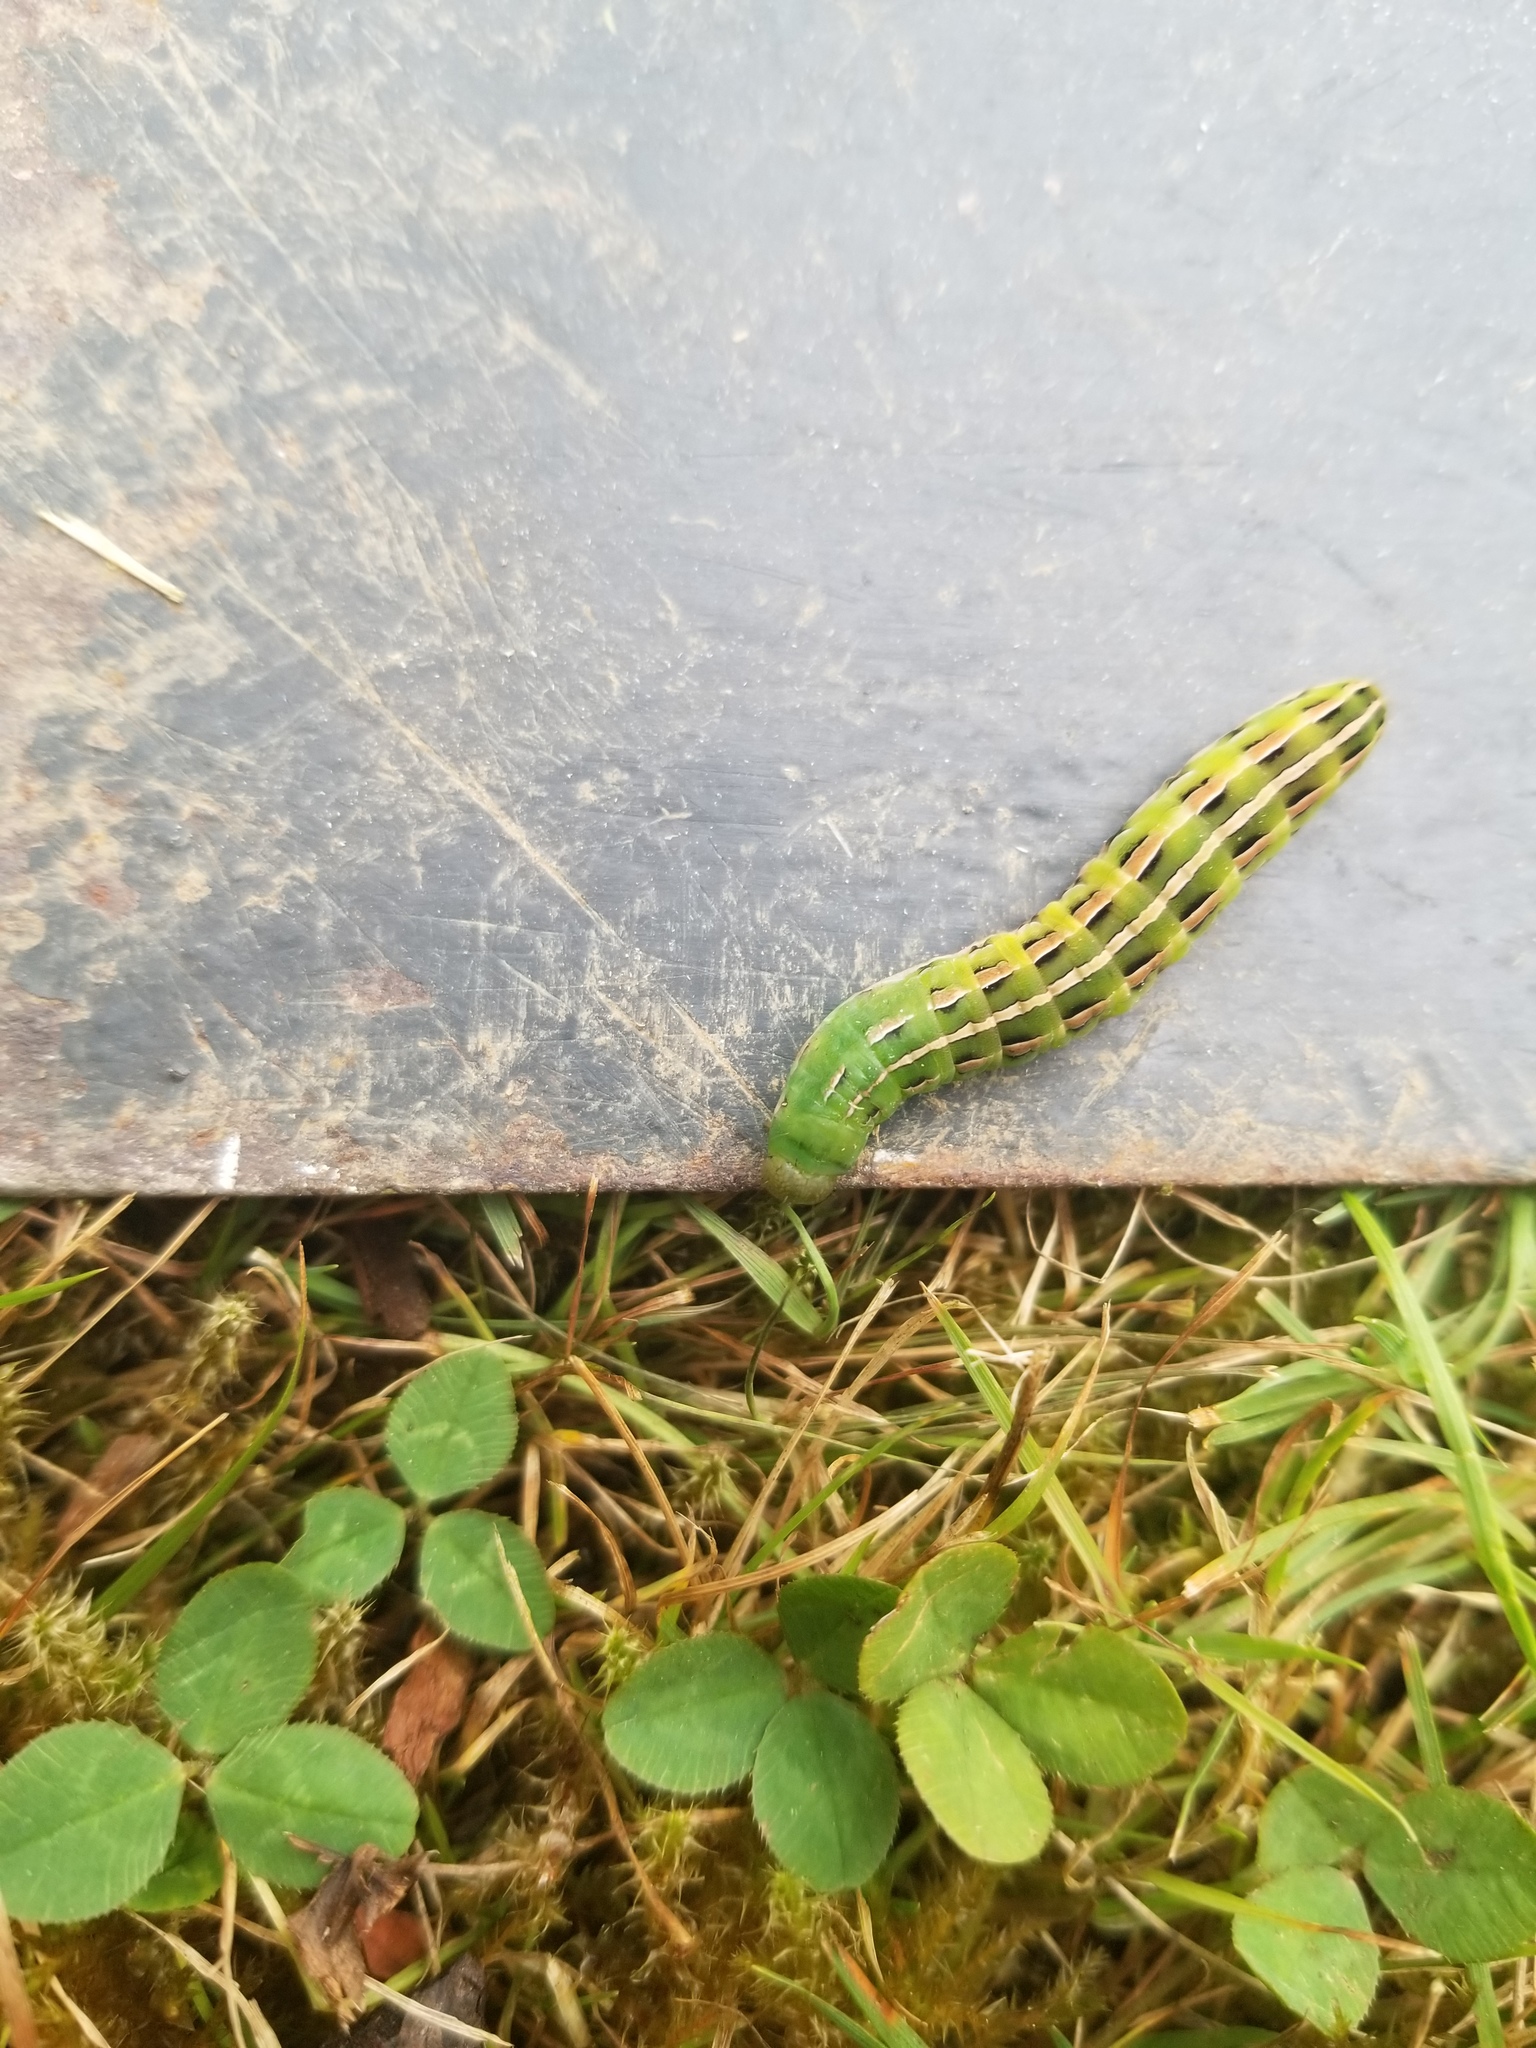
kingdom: Animalia
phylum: Arthropoda
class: Insecta
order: Lepidoptera
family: Noctuidae
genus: Dargida
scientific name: Dargida procinctus
